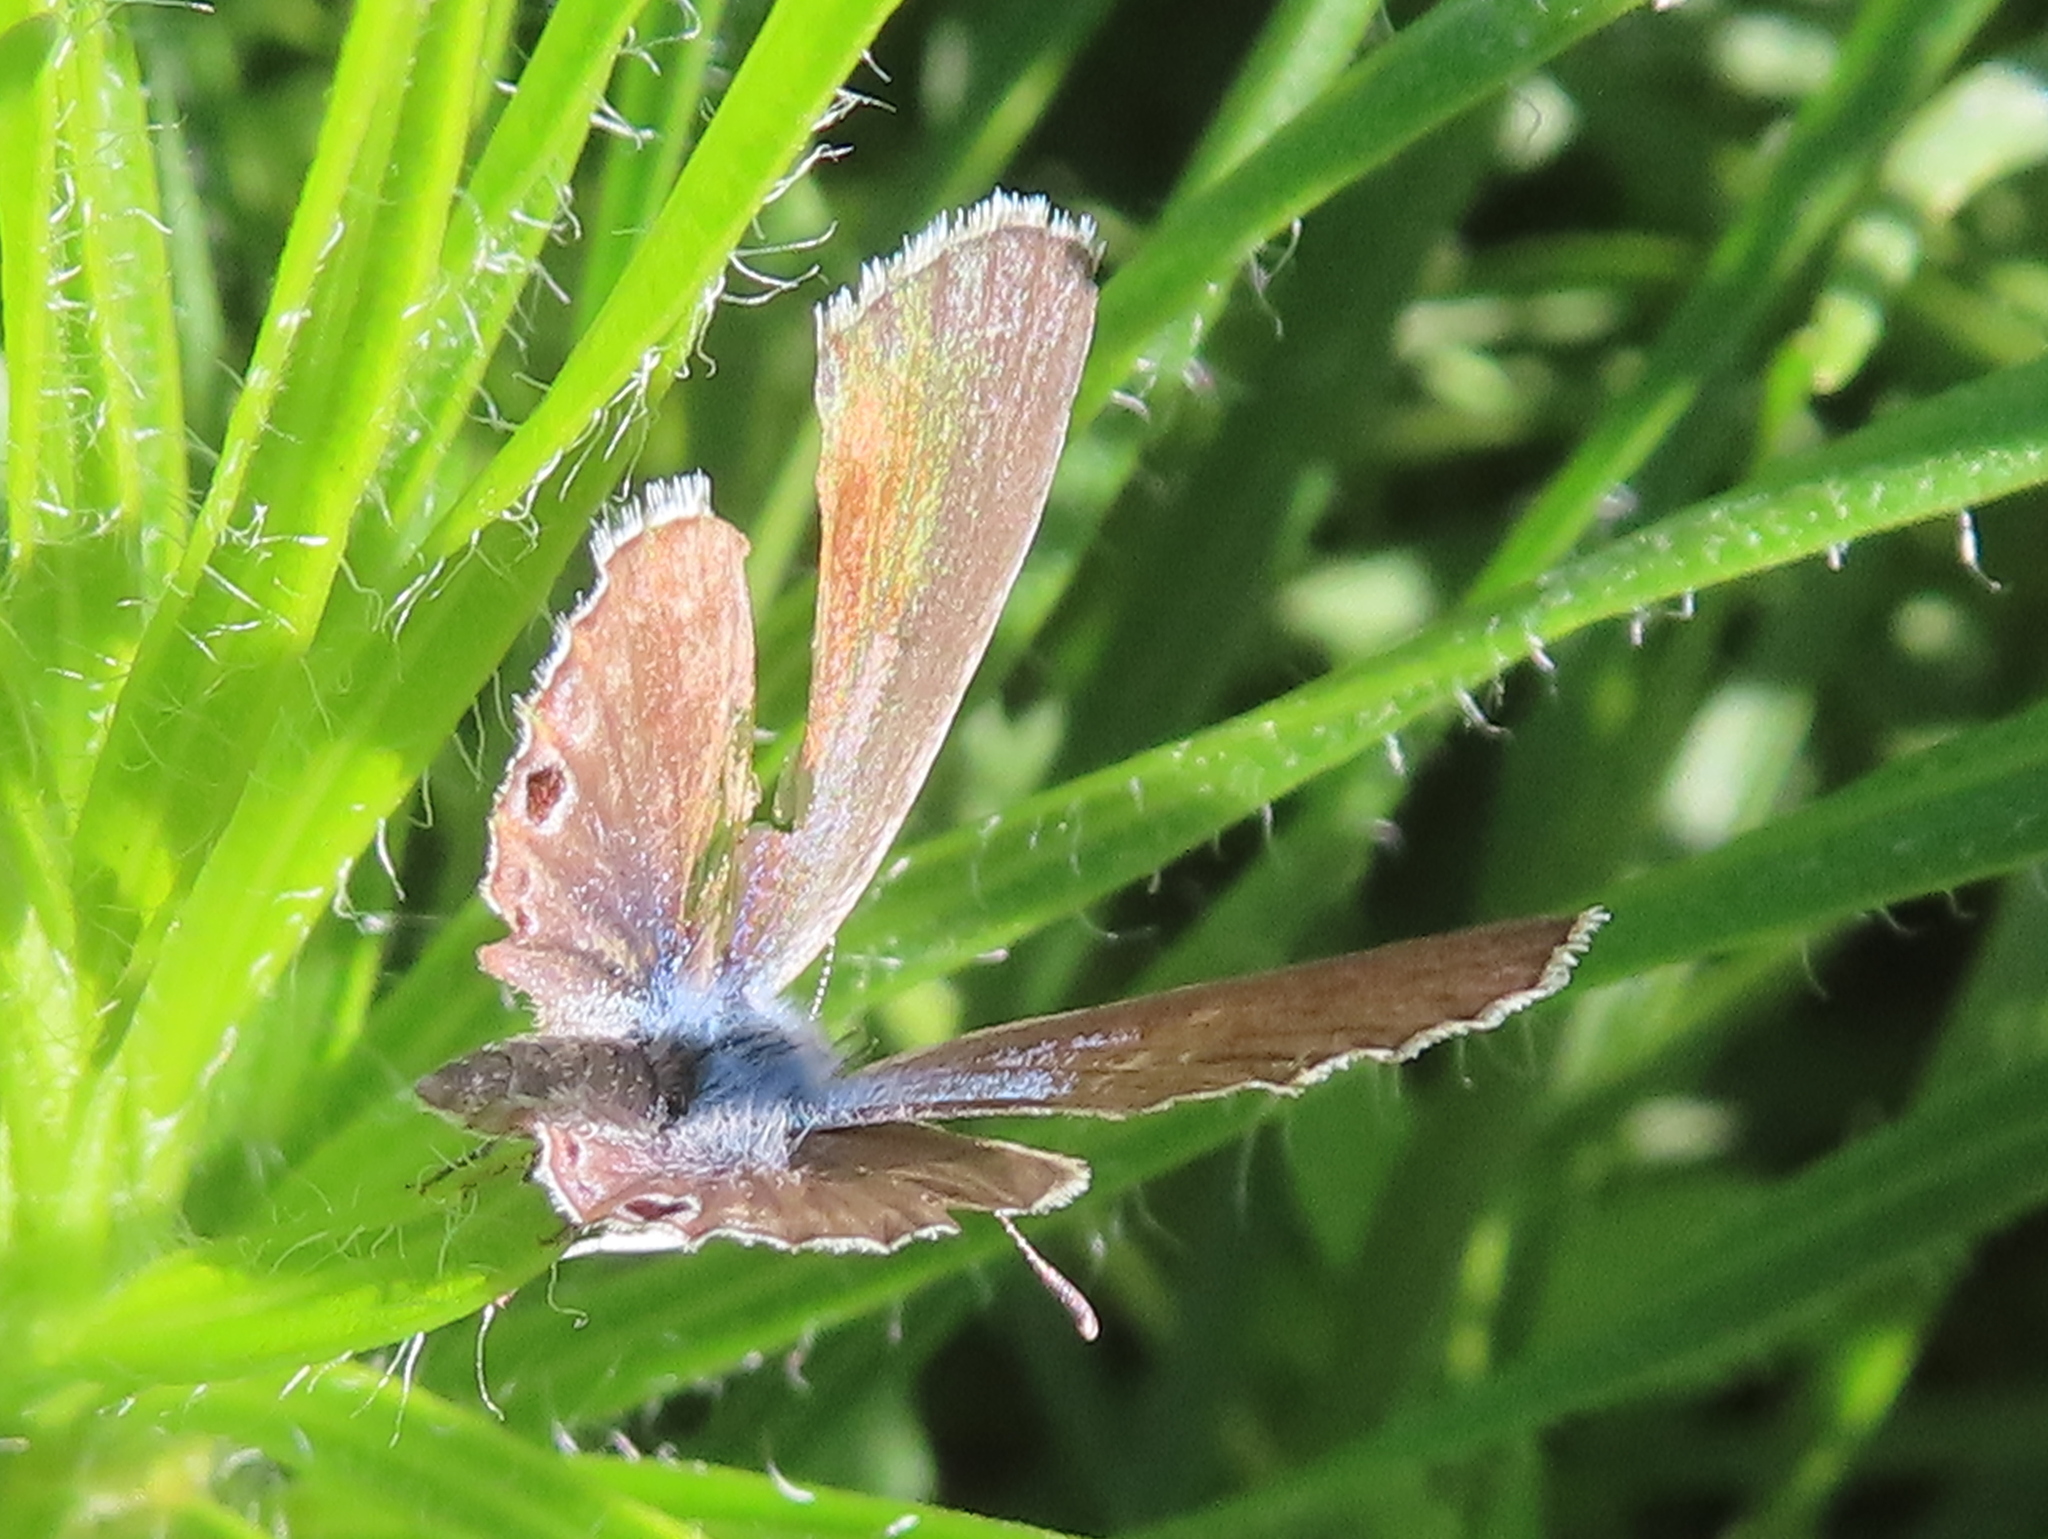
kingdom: Animalia
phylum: Arthropoda
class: Insecta
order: Lepidoptera
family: Lycaenidae
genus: Echinargus
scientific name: Echinargus isola
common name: Reakirt's blue
